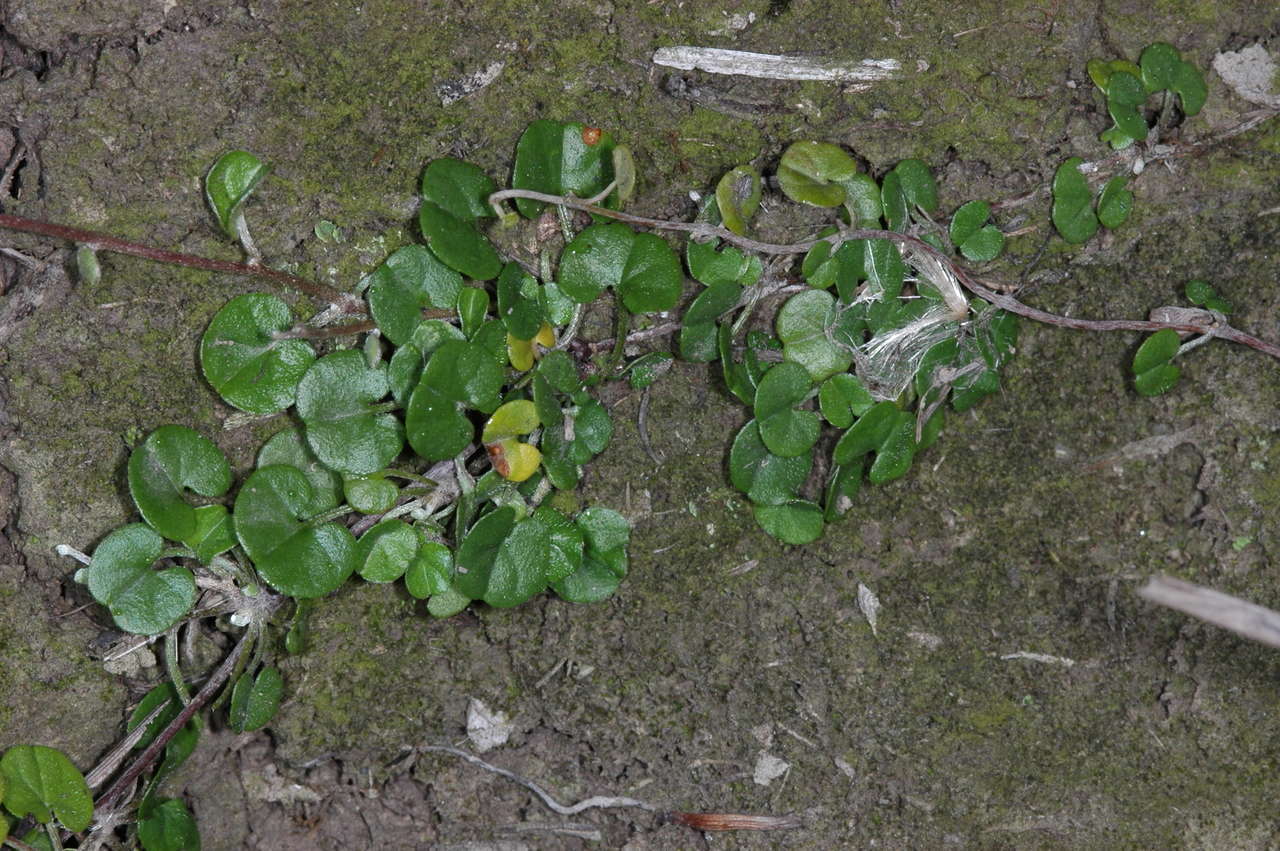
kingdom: Plantae
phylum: Tracheophyta
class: Magnoliopsida
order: Solanales
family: Convolvulaceae
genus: Dichondra
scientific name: Dichondra repens
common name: Kidneyweed
